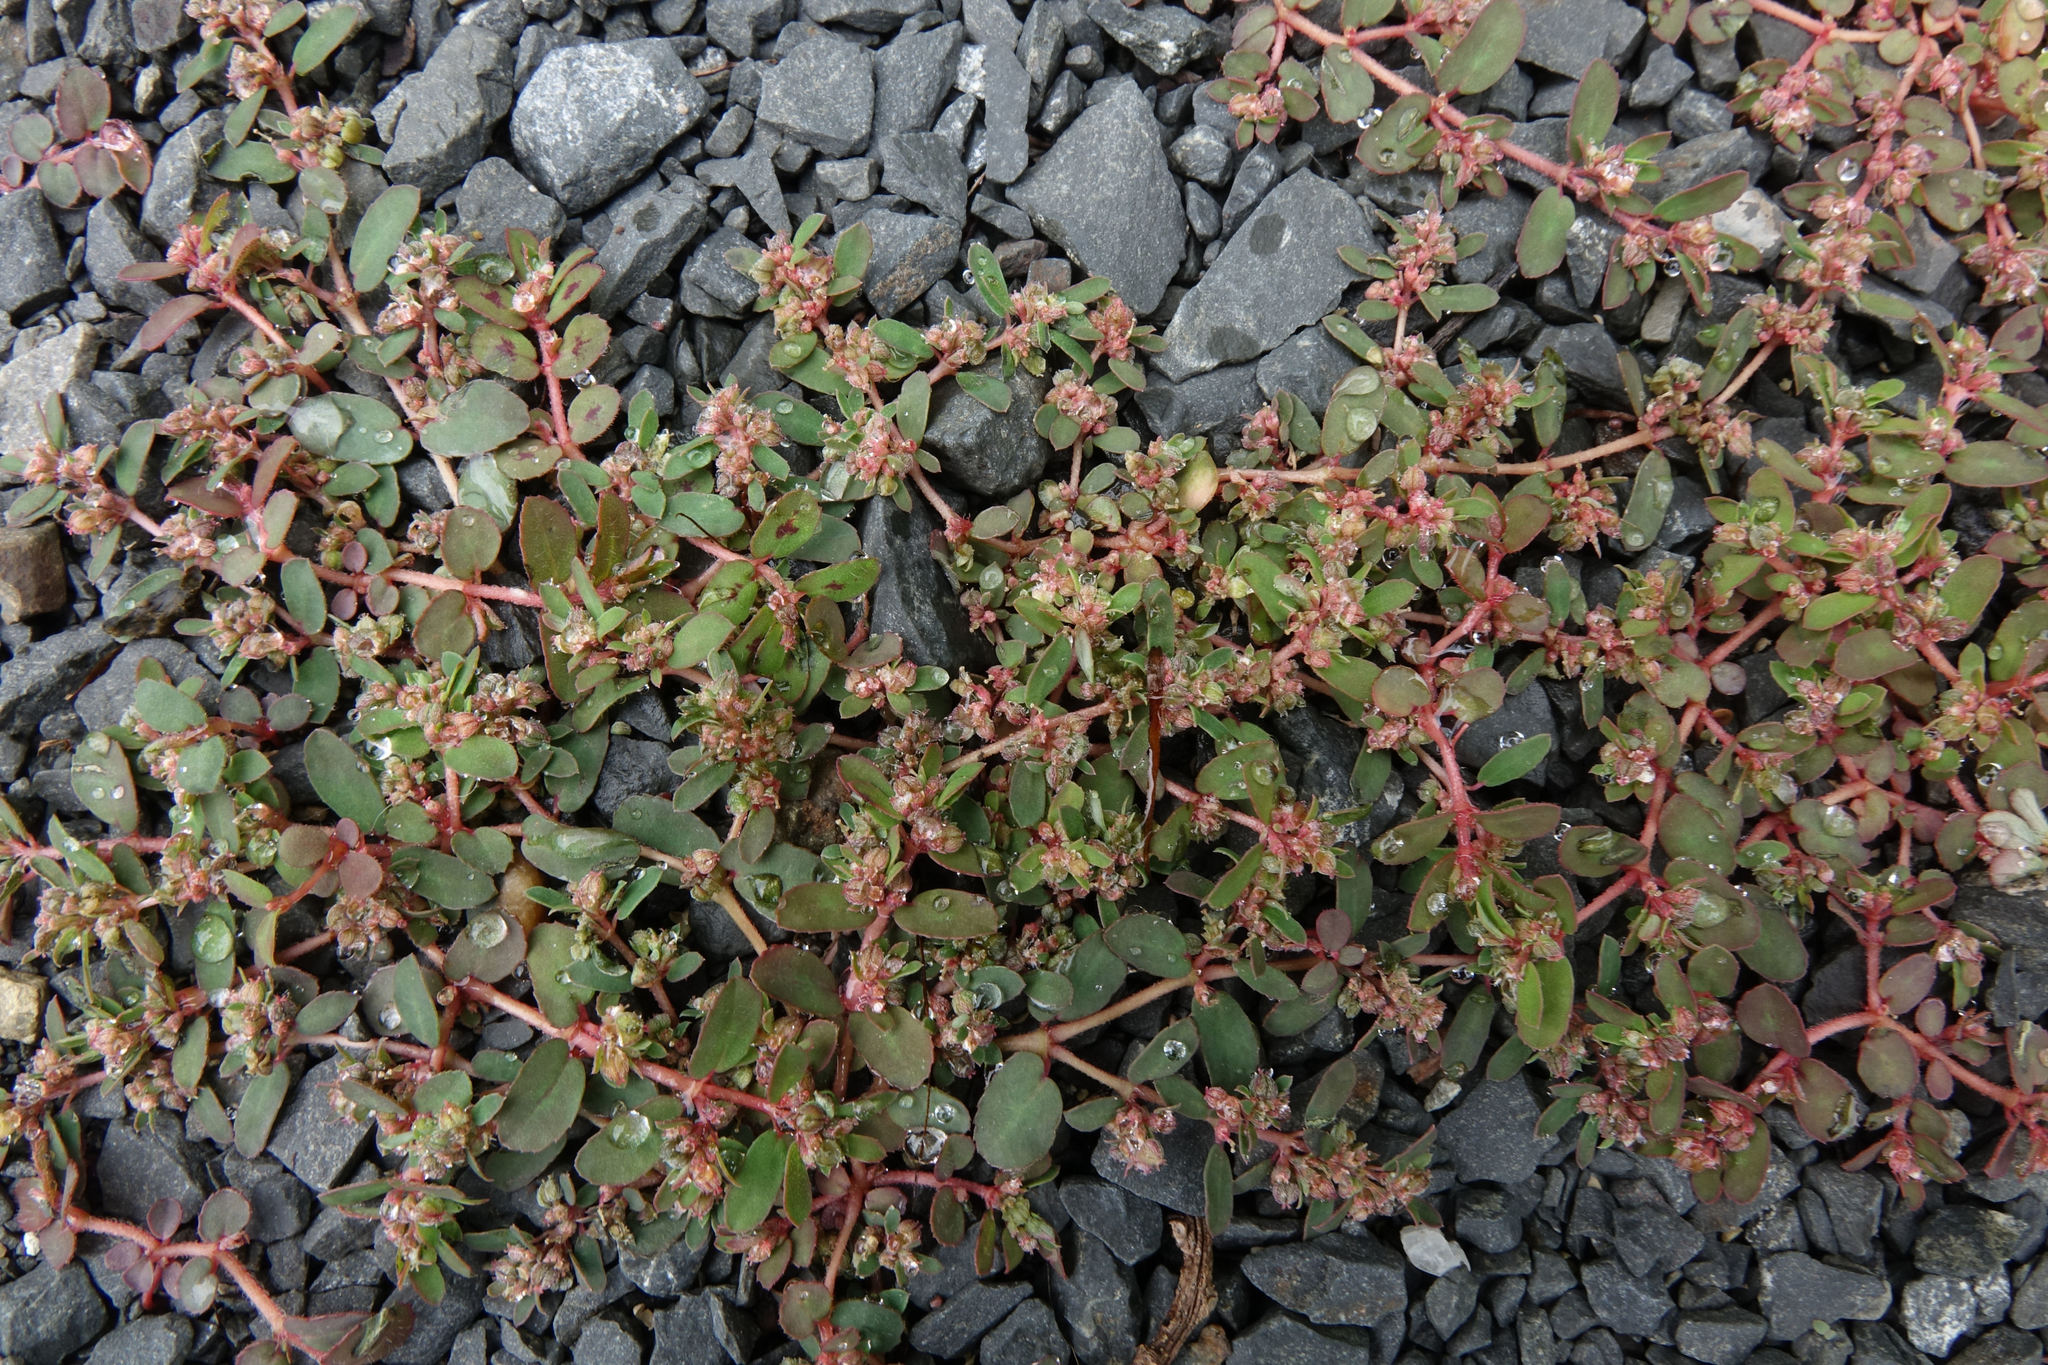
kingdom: Plantae
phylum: Tracheophyta
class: Magnoliopsida
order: Malpighiales
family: Euphorbiaceae
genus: Euphorbia
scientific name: Euphorbia maculata
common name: Spotted spurge
